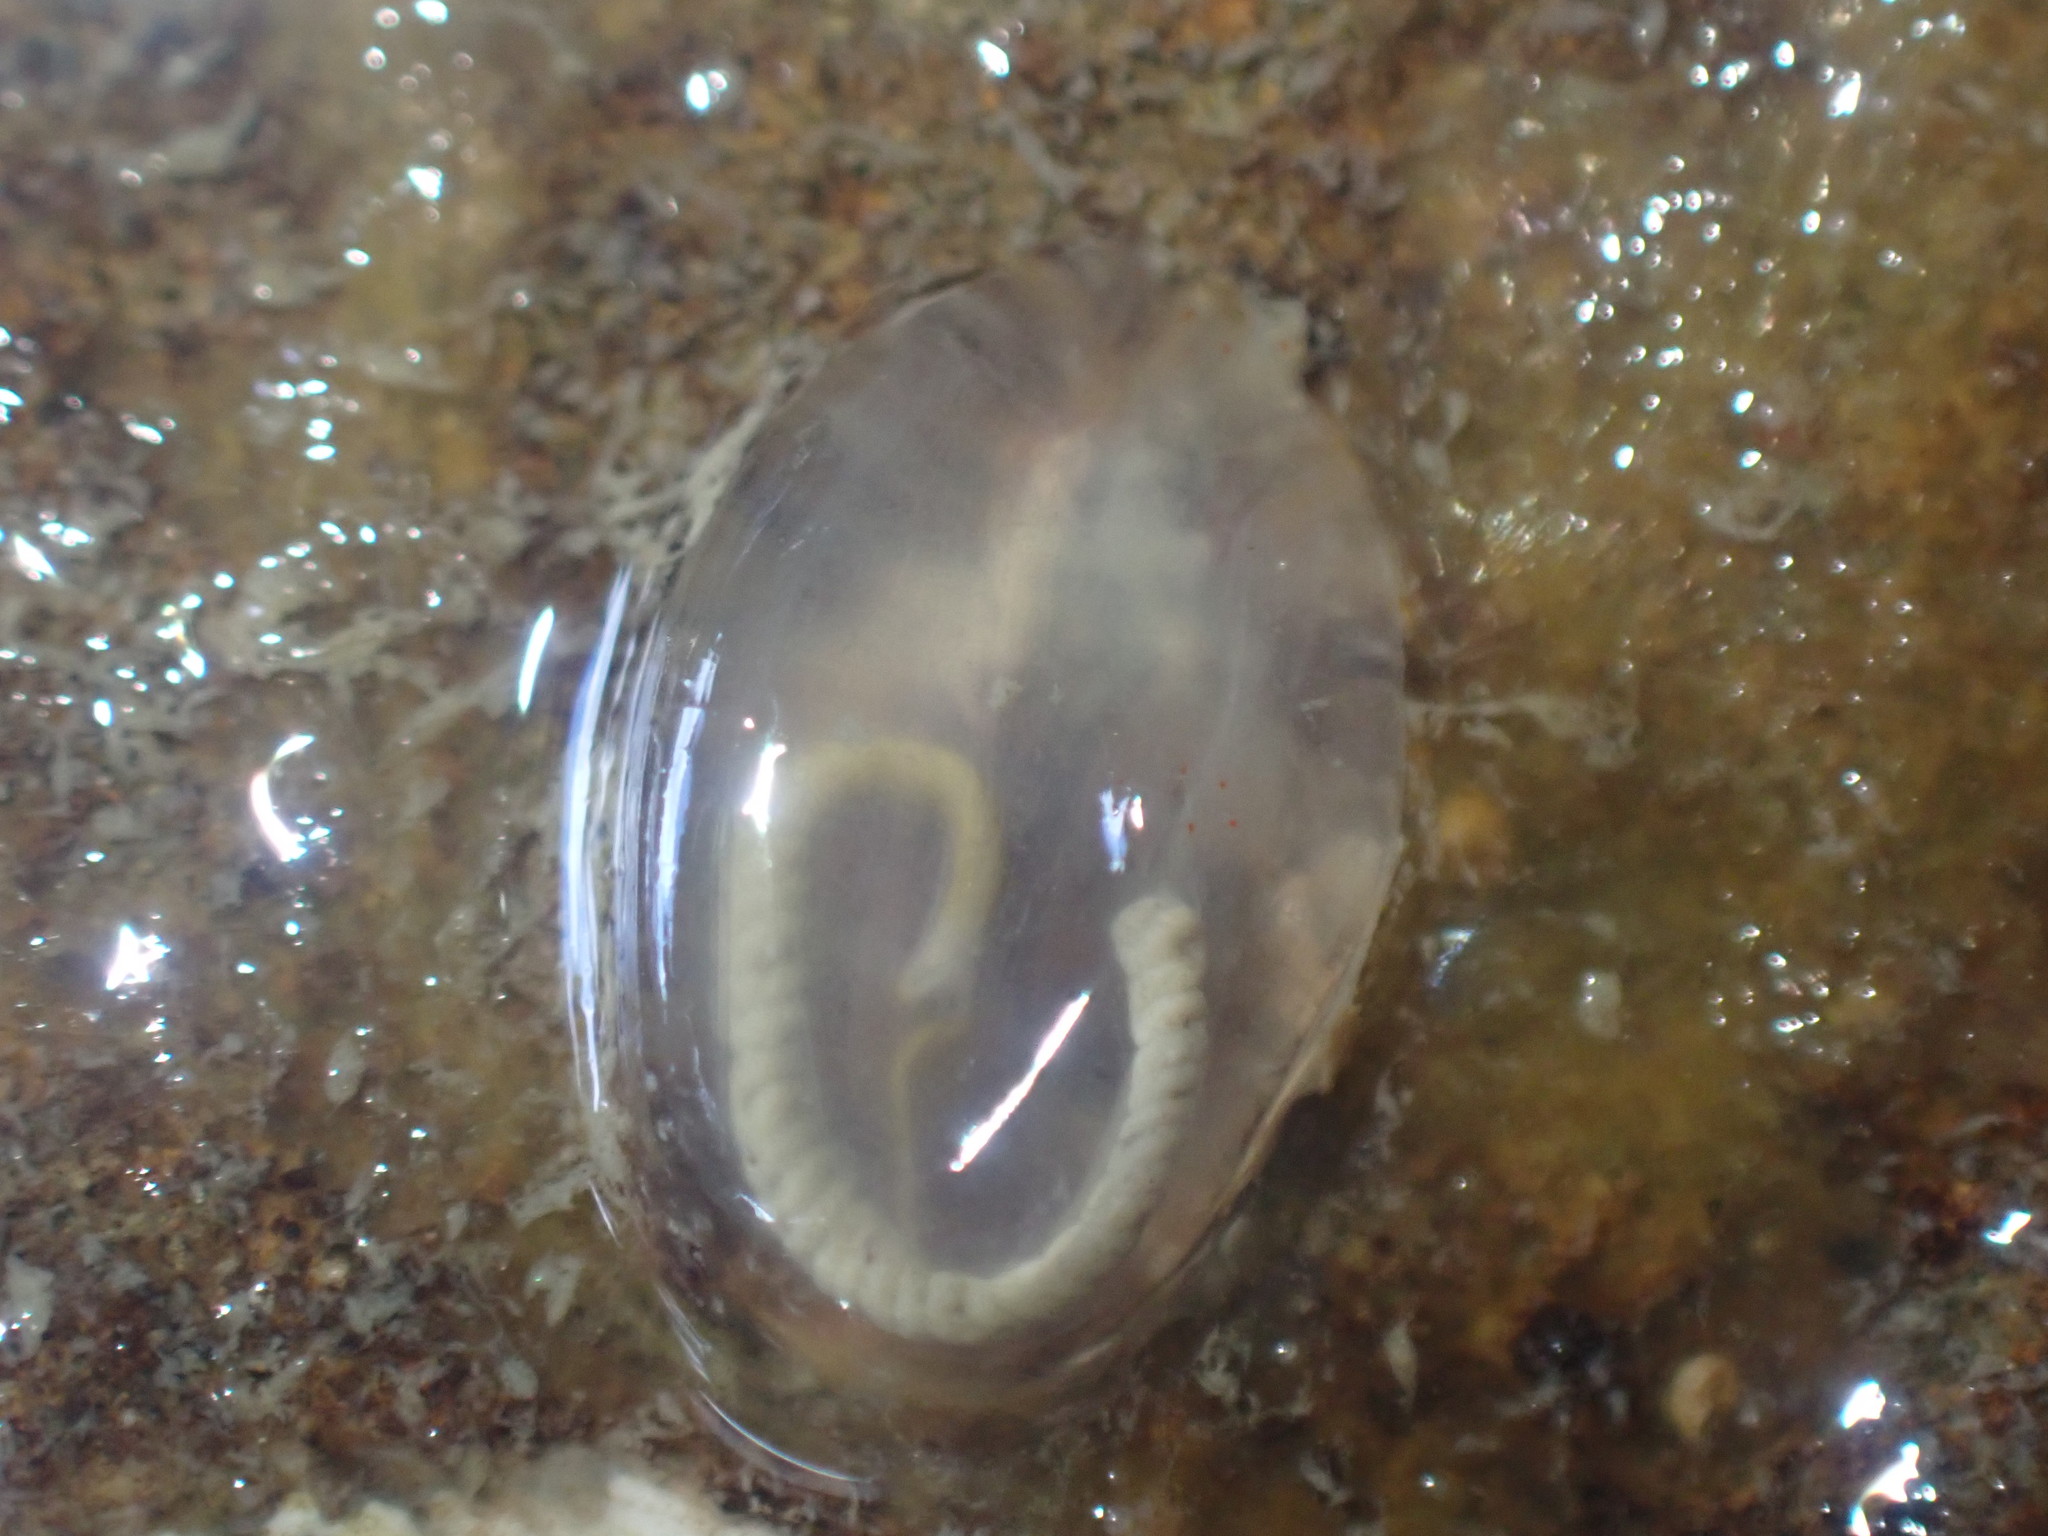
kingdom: Animalia
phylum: Chordata
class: Ascidiacea
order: Phlebobranchia
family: Agneziidae
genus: Agnezia
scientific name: Agnezia glaciata
